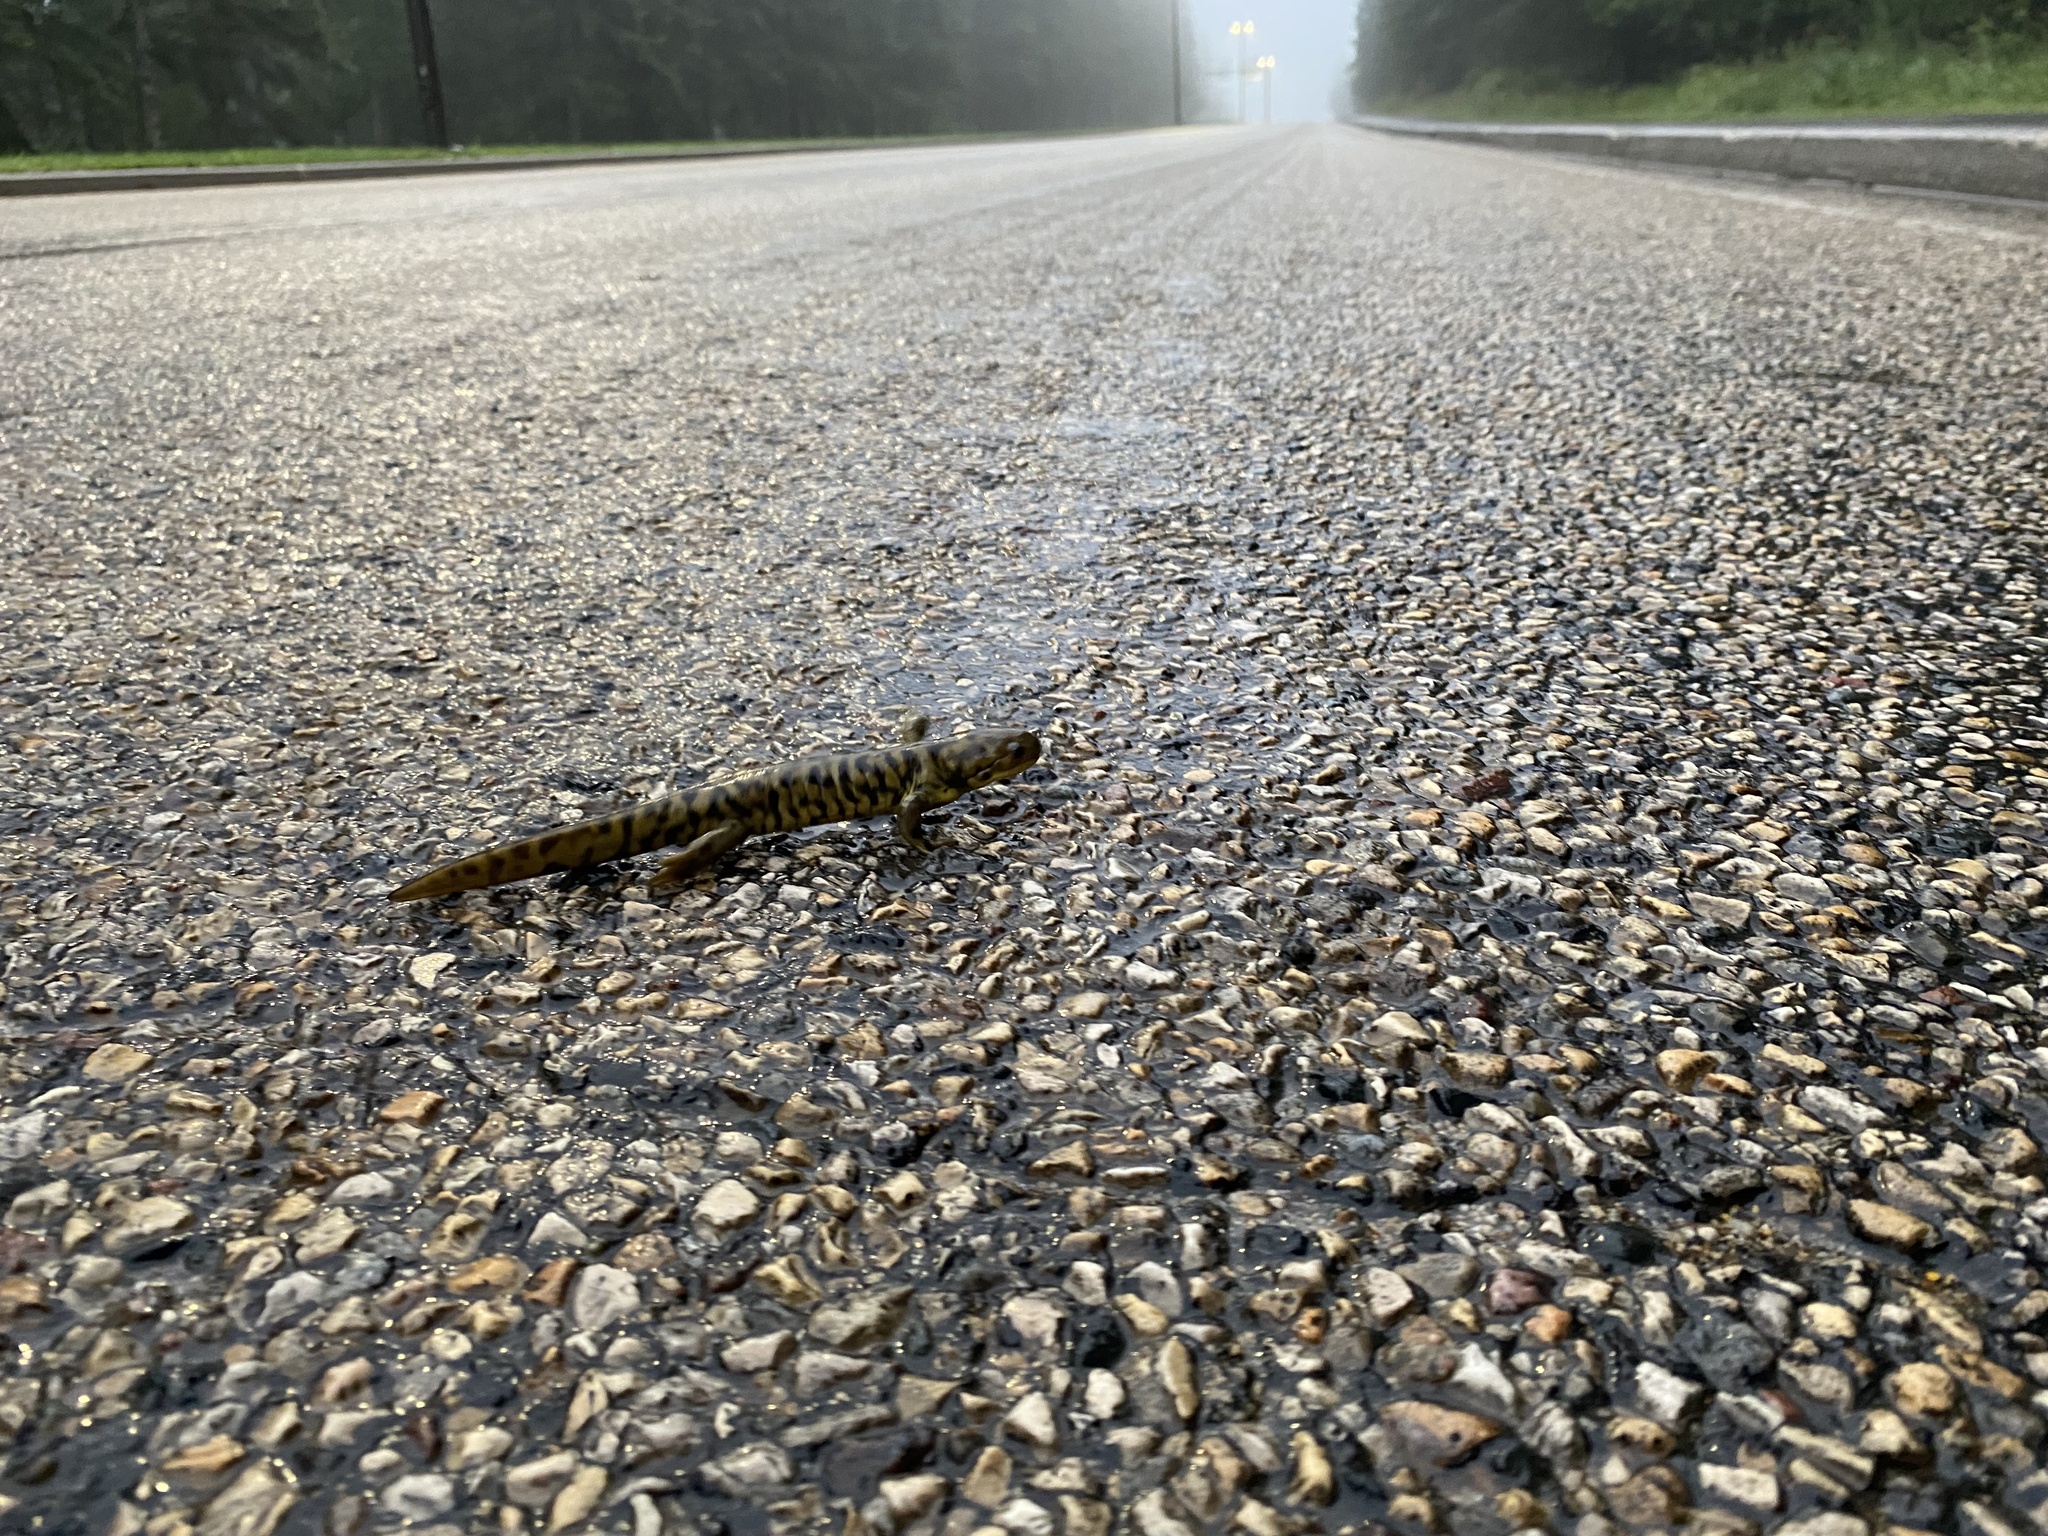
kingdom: Animalia
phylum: Chordata
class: Amphibia
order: Caudata
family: Ambystomatidae
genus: Ambystoma
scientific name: Ambystoma mavortium
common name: Western tiger salamander
